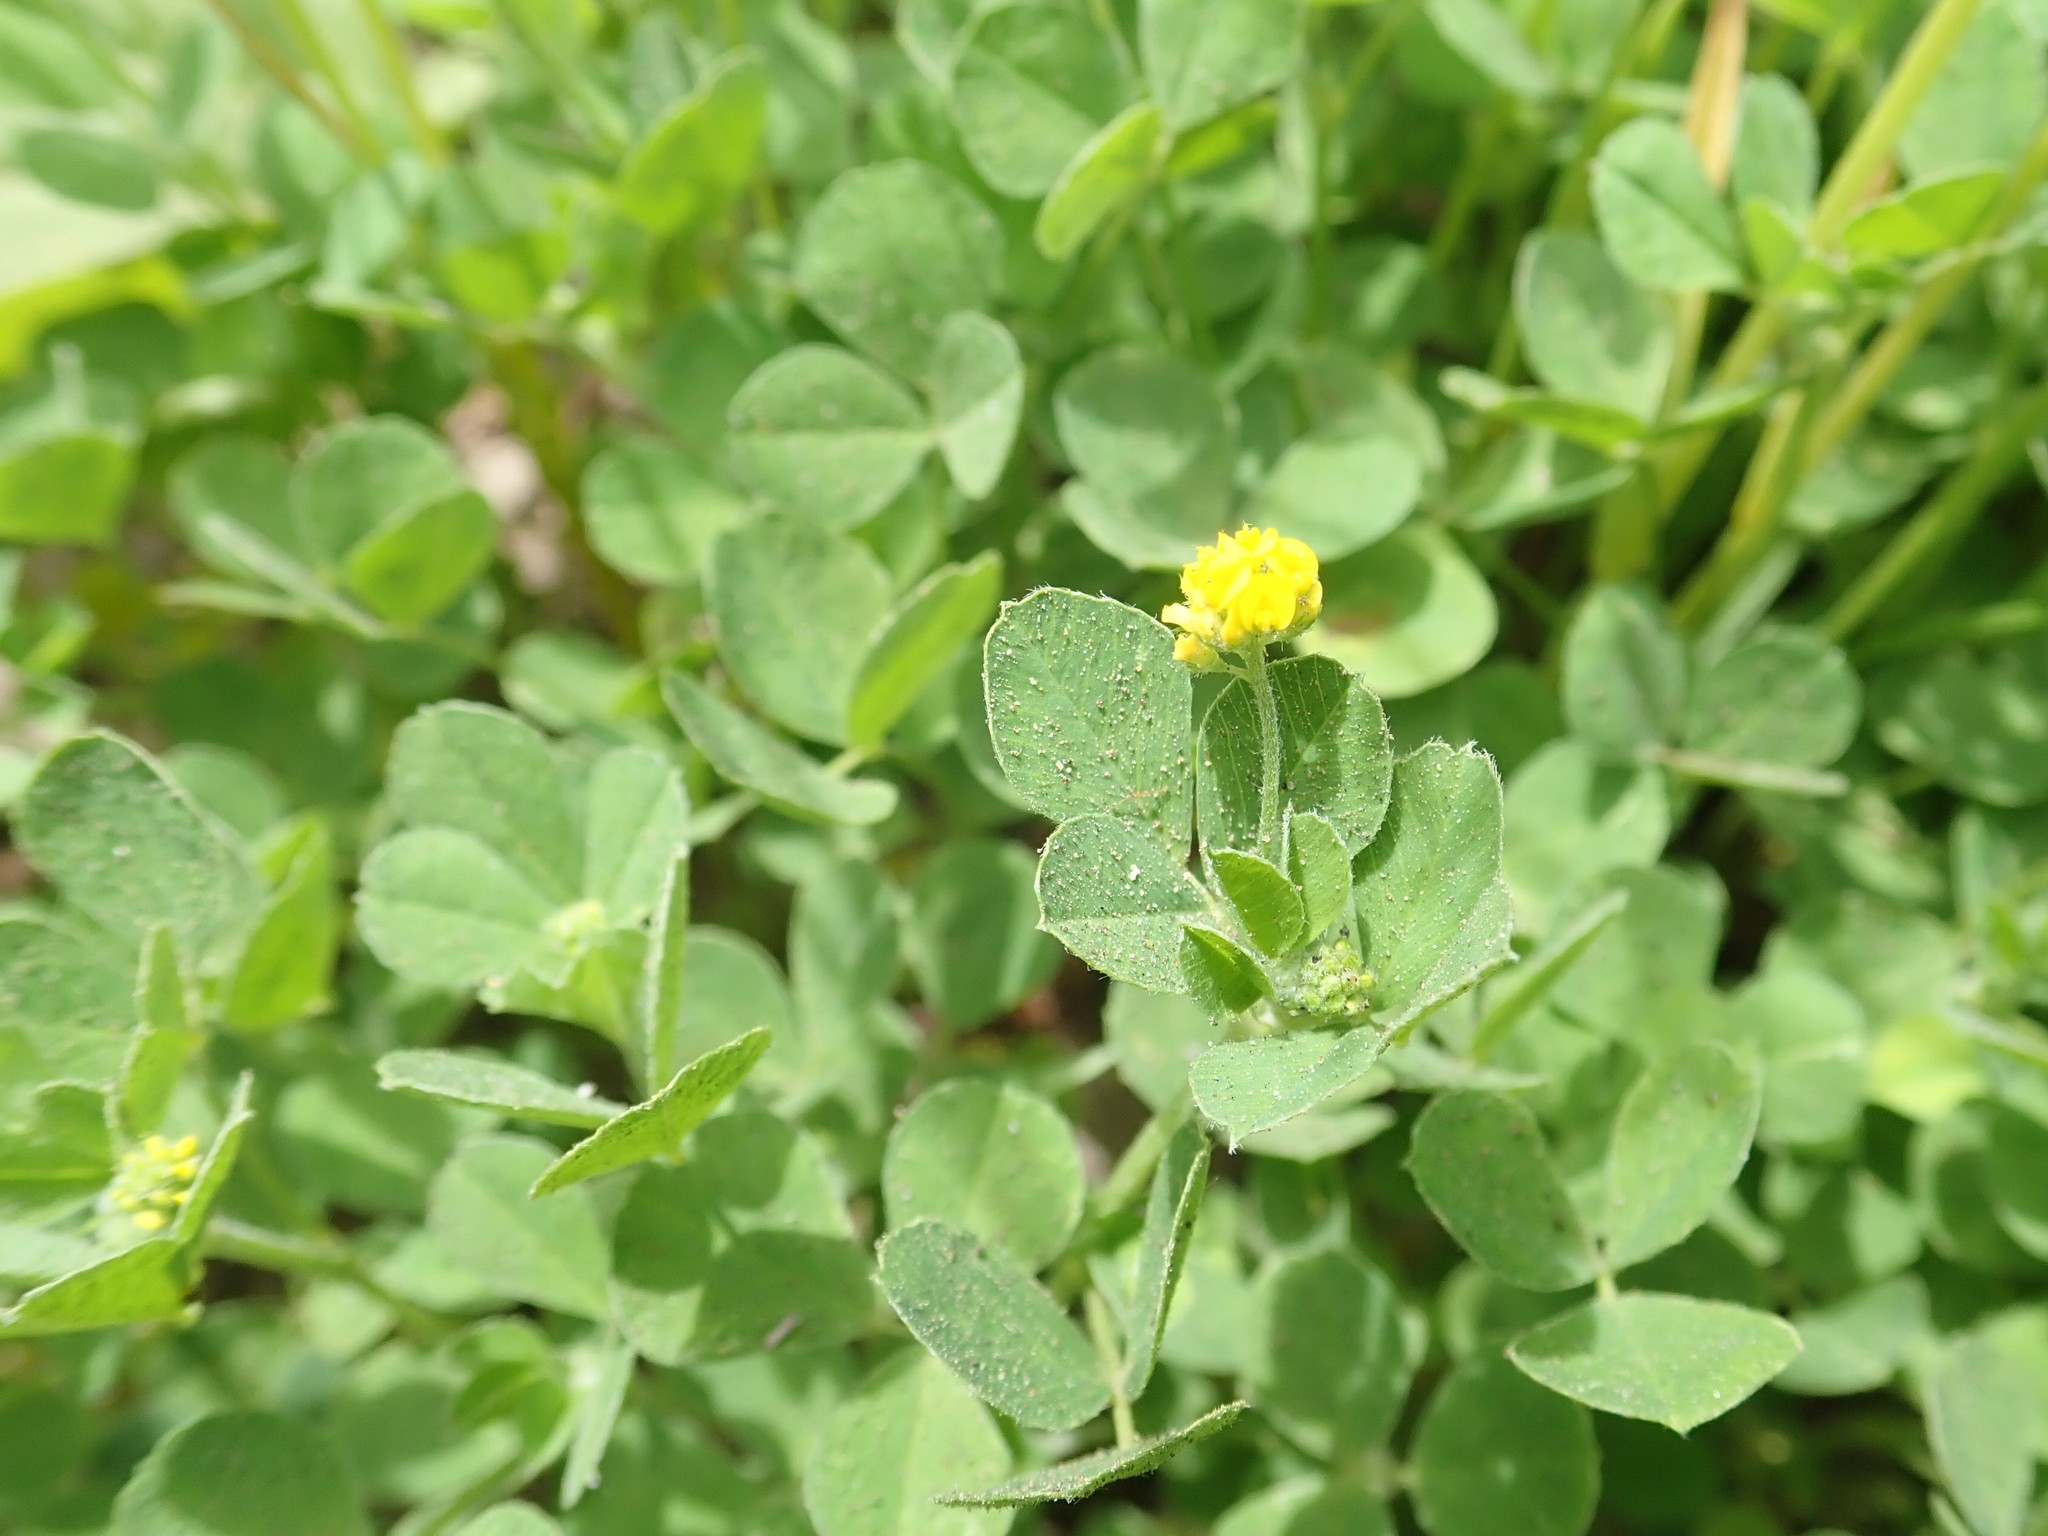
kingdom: Plantae
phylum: Tracheophyta
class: Magnoliopsida
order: Fabales
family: Fabaceae
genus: Medicago
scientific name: Medicago lupulina
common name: Black medick
